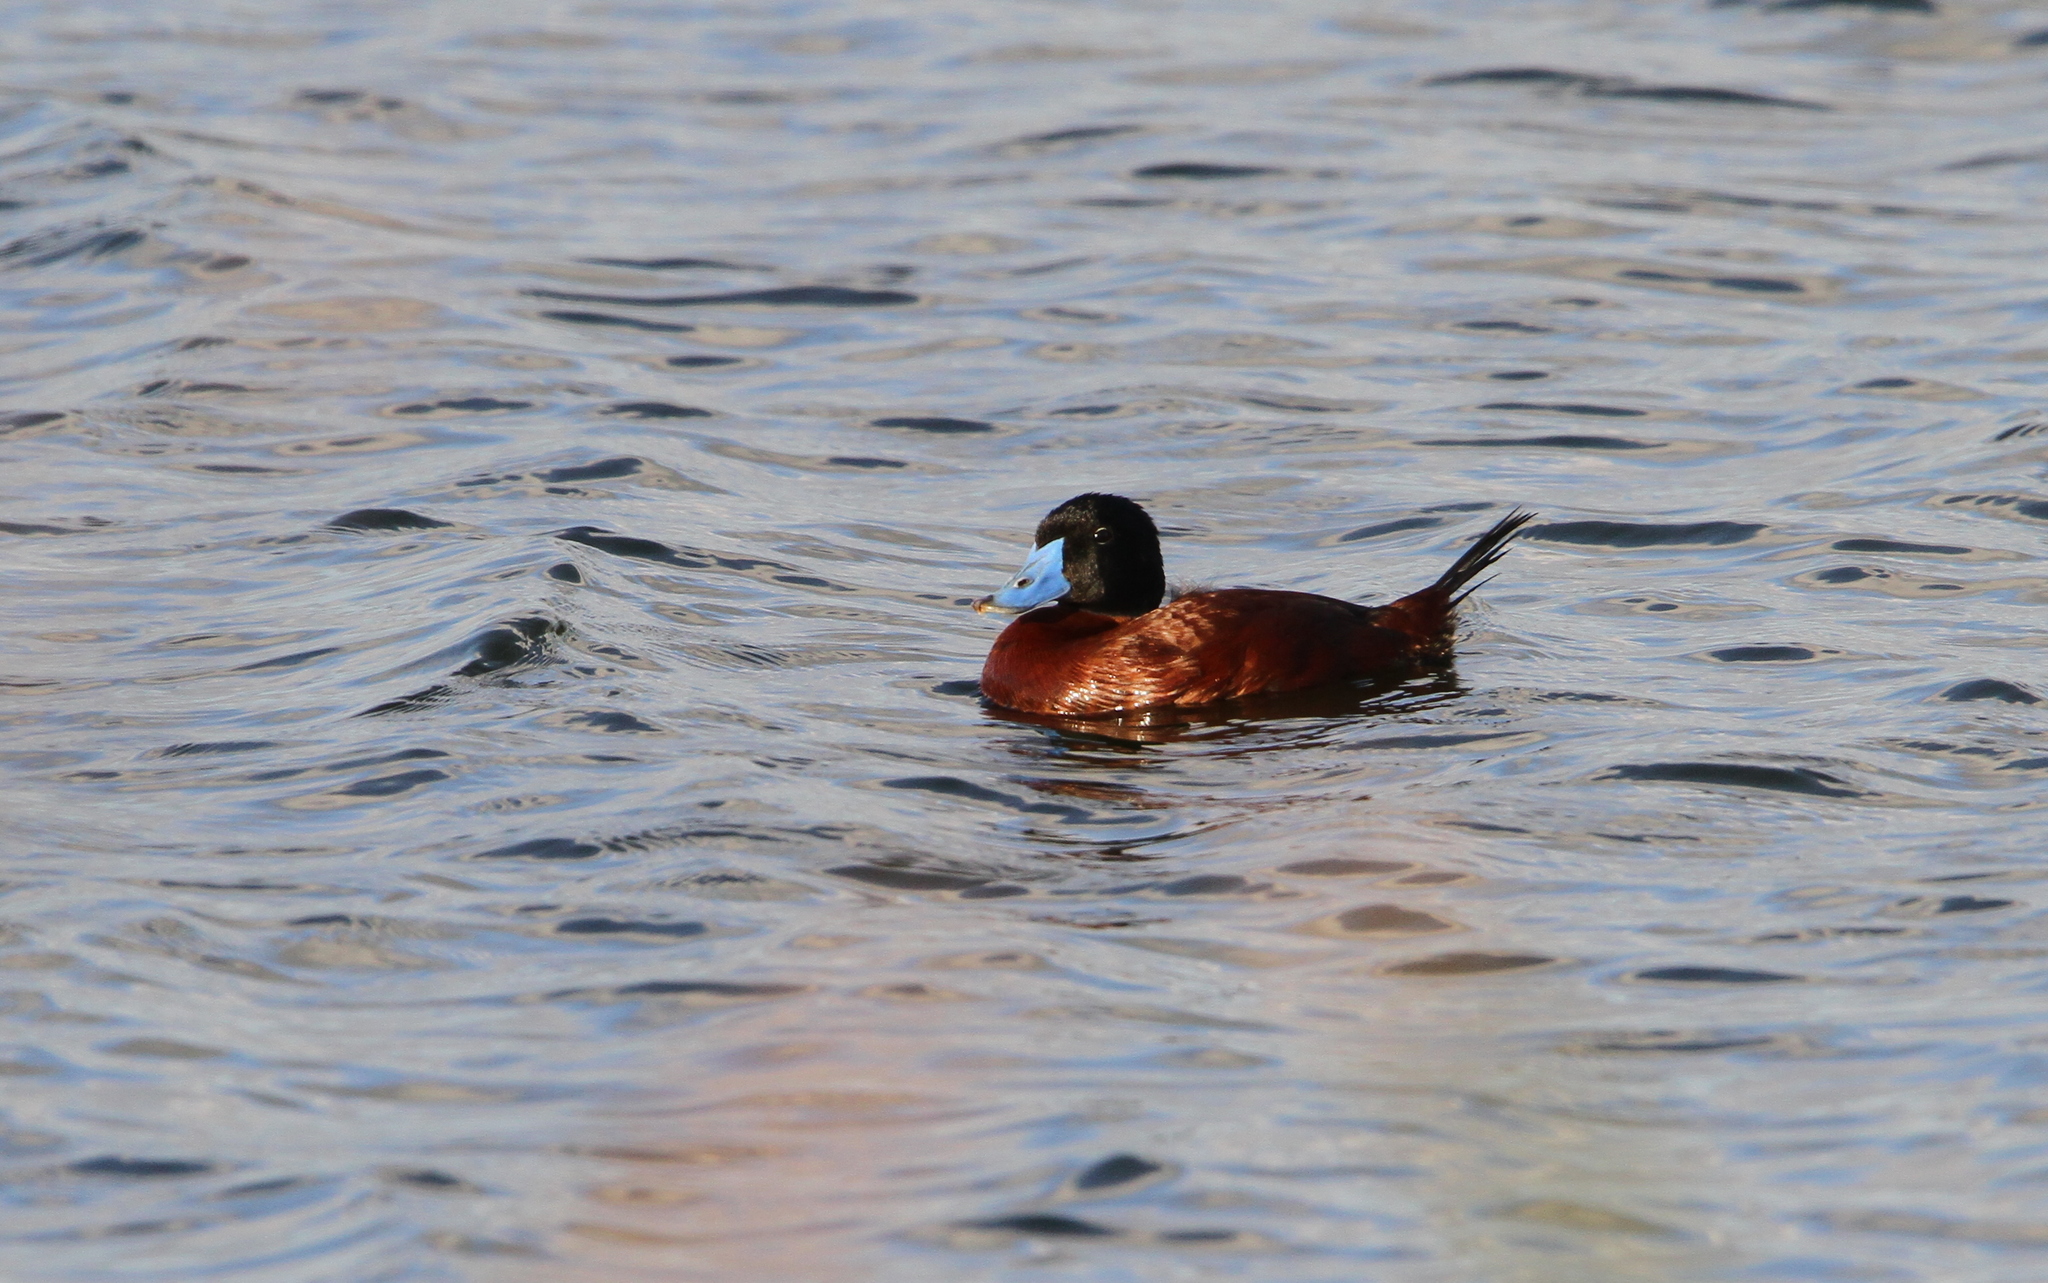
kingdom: Animalia
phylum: Chordata
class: Aves
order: Anseriformes
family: Anatidae
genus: Oxyura
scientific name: Oxyura maccoa
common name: Maccoa duck
